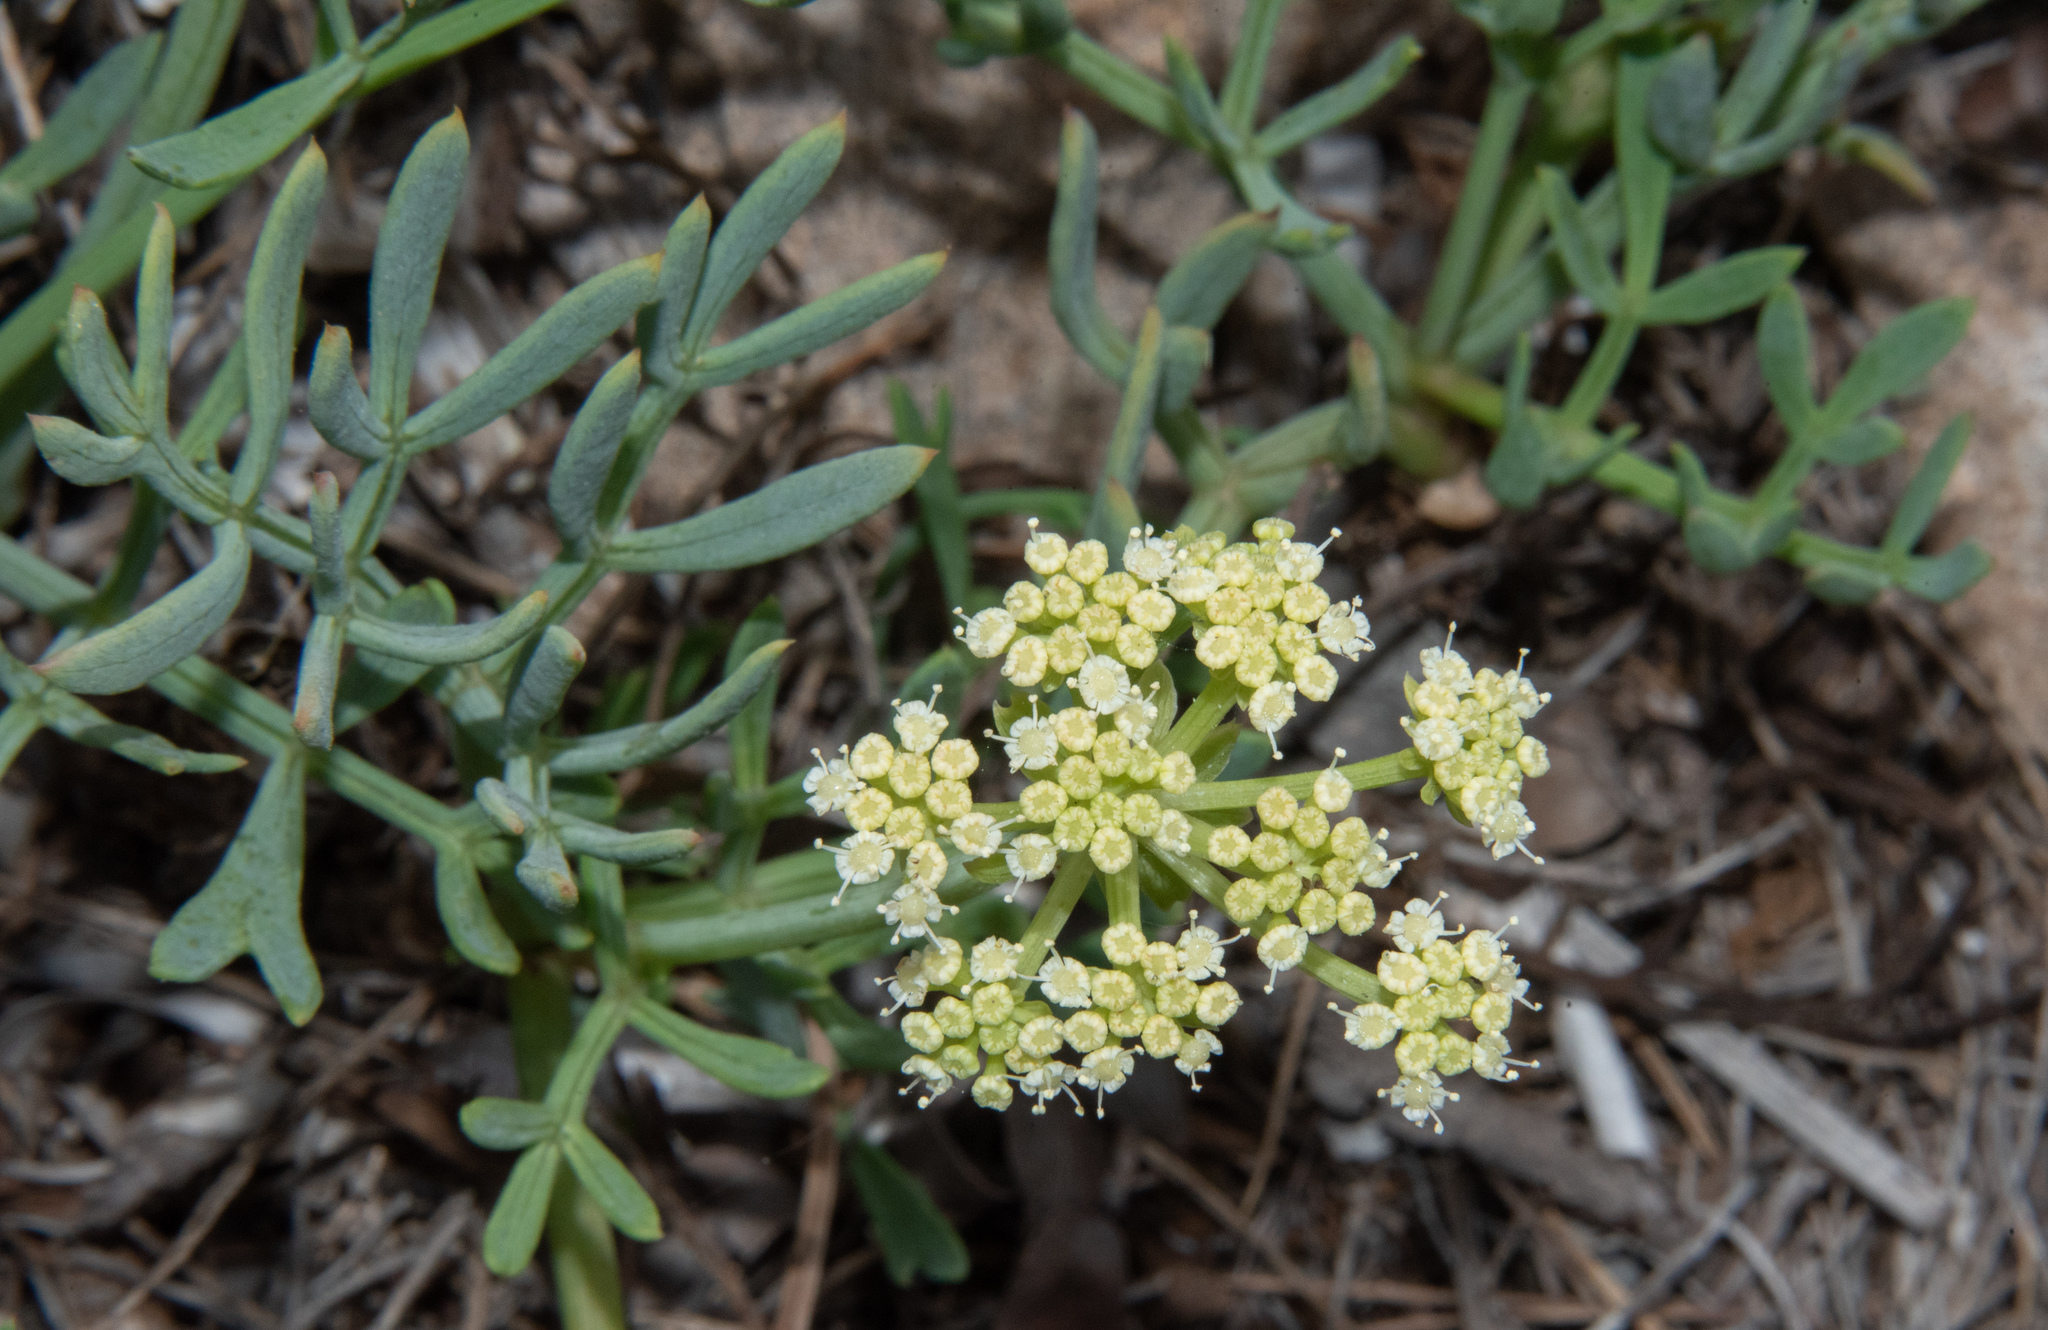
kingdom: Plantae
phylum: Tracheophyta
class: Magnoliopsida
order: Apiales
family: Apiaceae
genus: Crithmum
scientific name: Crithmum maritimum
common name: Rock samphire
